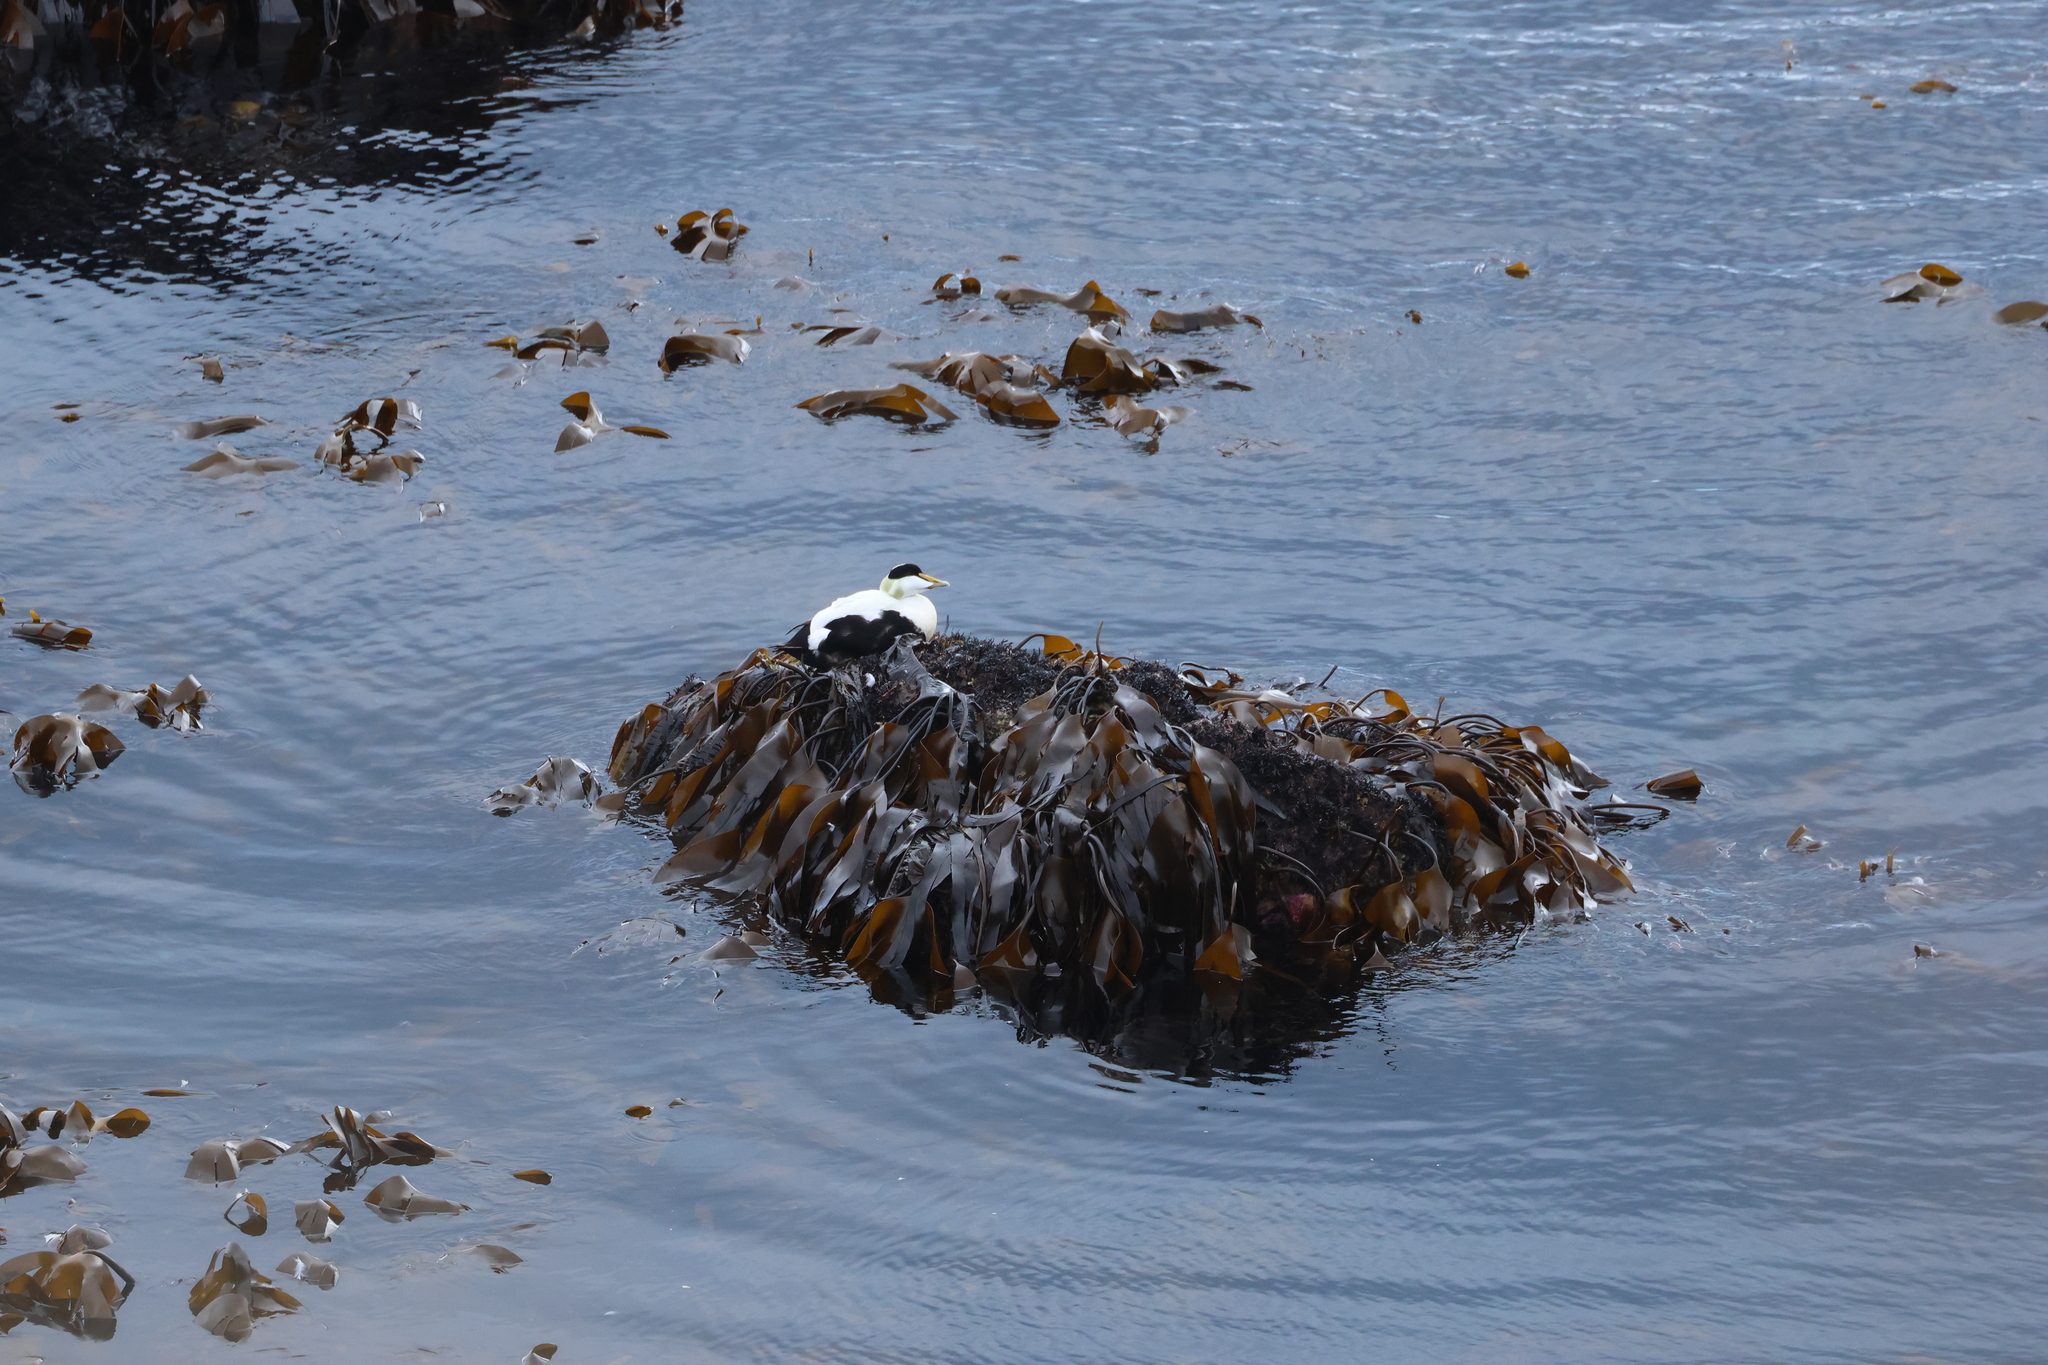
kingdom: Animalia
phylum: Chordata
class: Aves
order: Anseriformes
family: Anatidae
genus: Somateria
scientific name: Somateria mollissima
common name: Common eider
